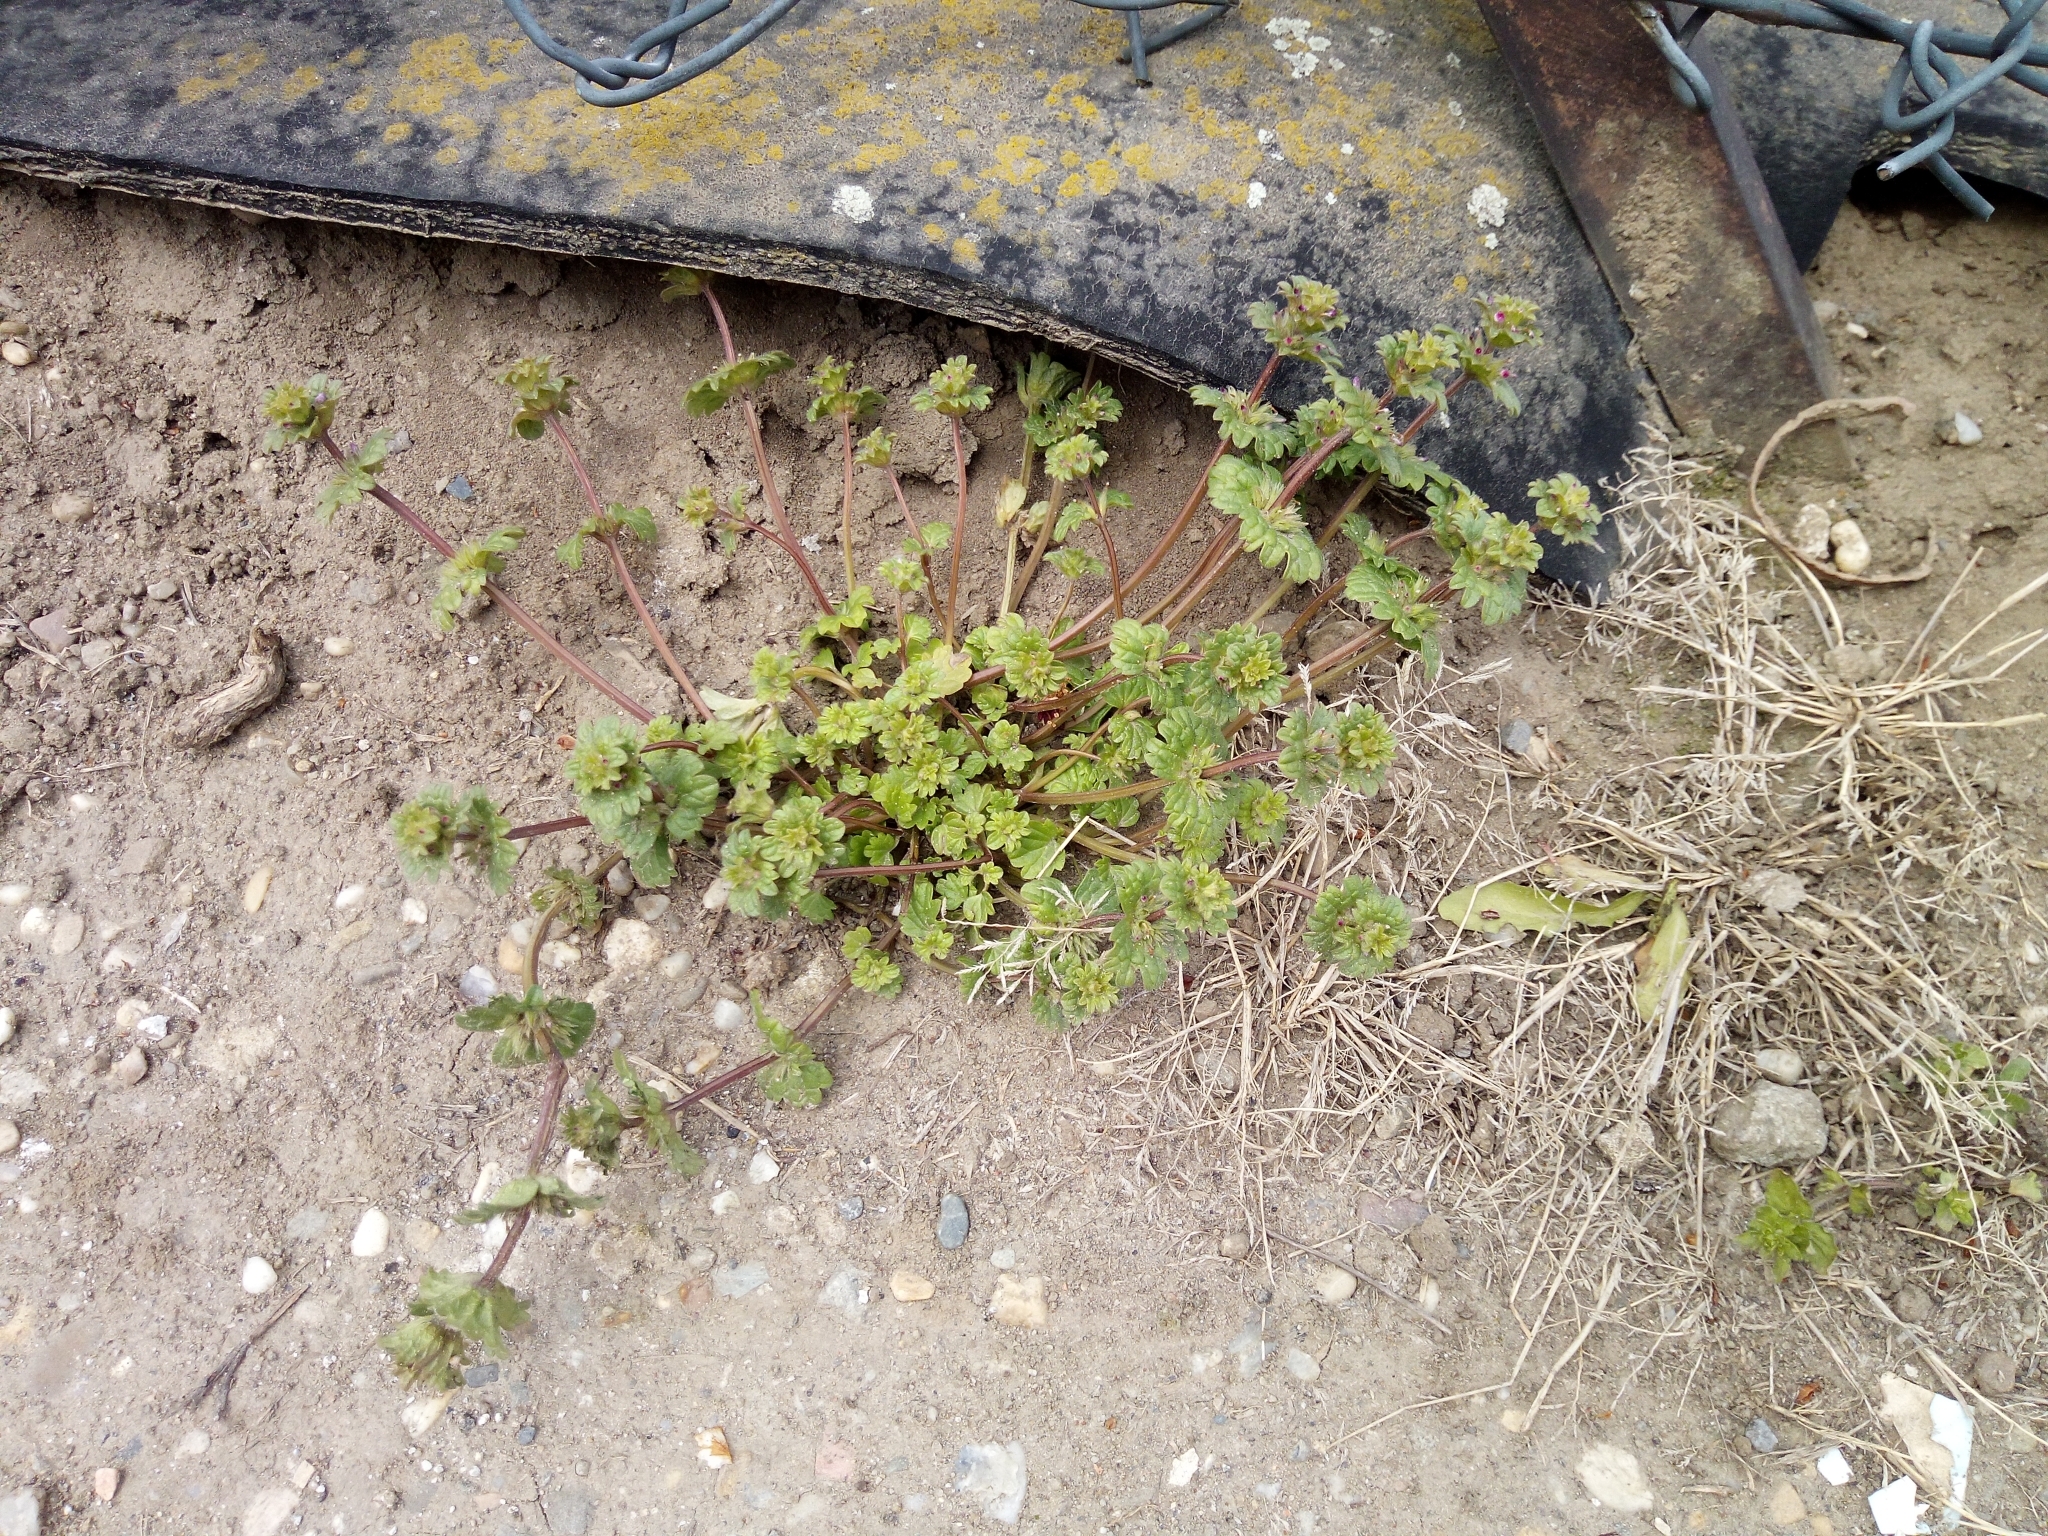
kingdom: Plantae
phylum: Tracheophyta
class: Magnoliopsida
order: Lamiales
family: Lamiaceae
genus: Lamium
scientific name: Lamium amplexicaule
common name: Henbit dead-nettle
